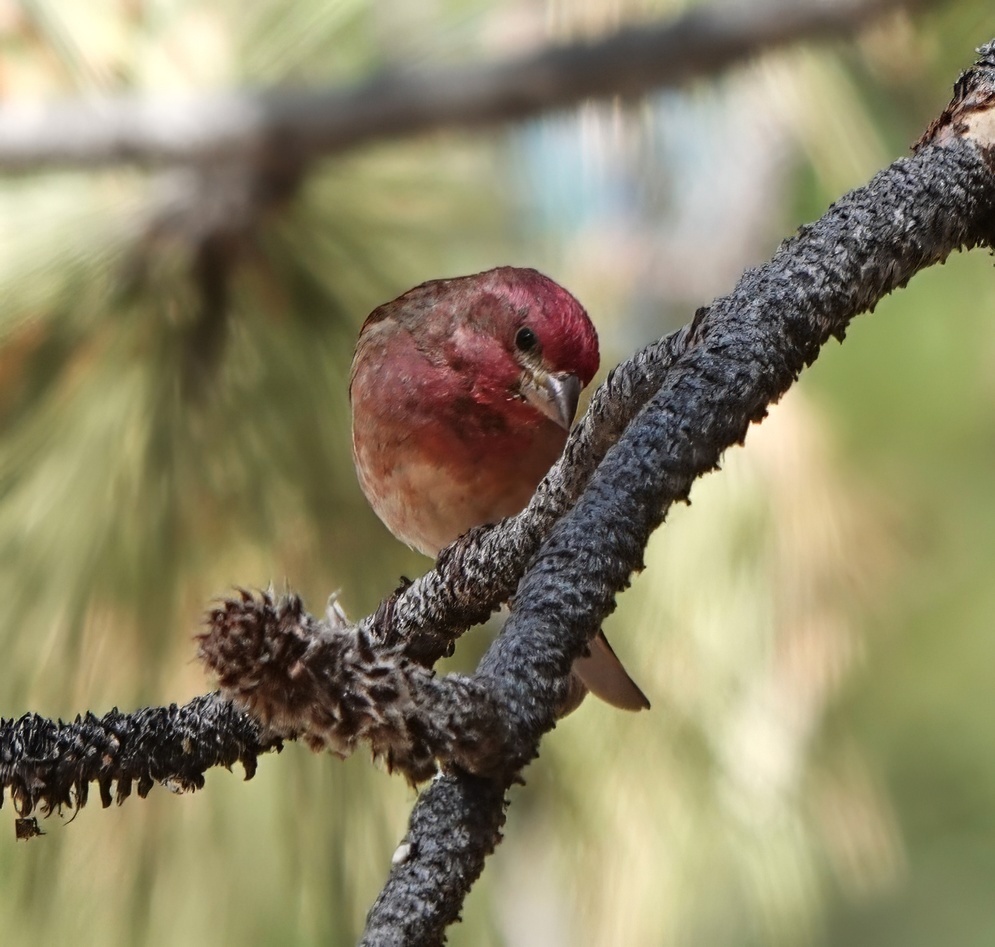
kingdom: Animalia
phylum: Chordata
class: Aves
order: Passeriformes
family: Fringillidae
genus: Haemorhous
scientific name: Haemorhous purpureus
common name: Purple finch
